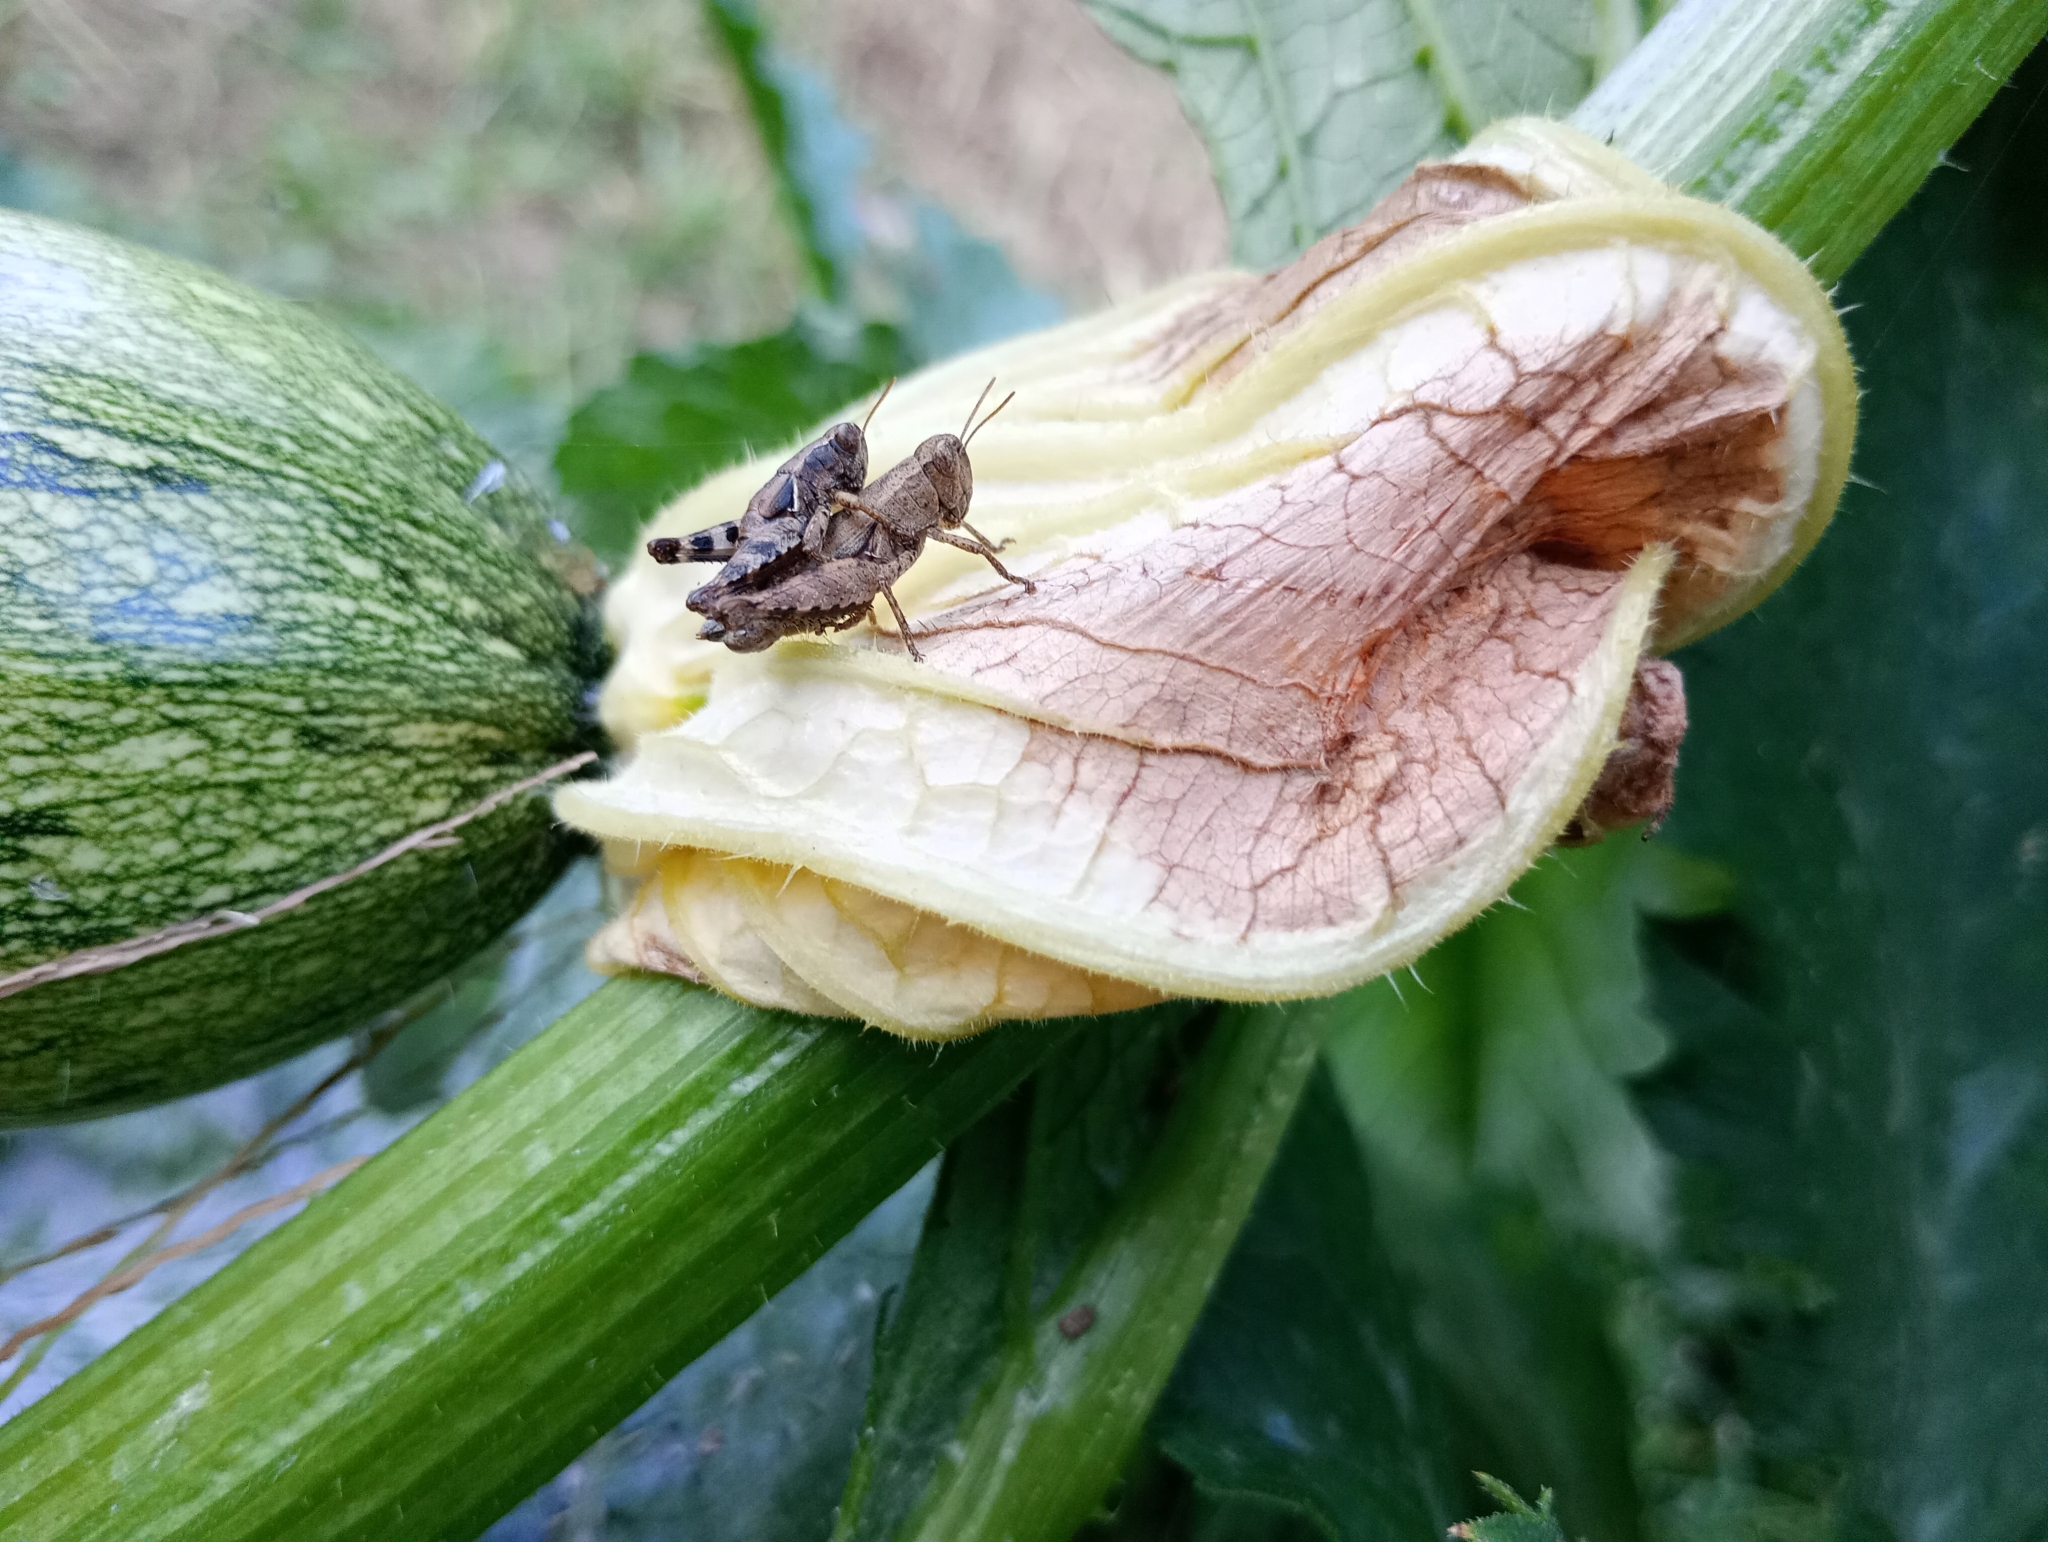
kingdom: Animalia
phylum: Arthropoda
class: Insecta
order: Orthoptera
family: Acrididae
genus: Pezotettix
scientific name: Pezotettix giornae
